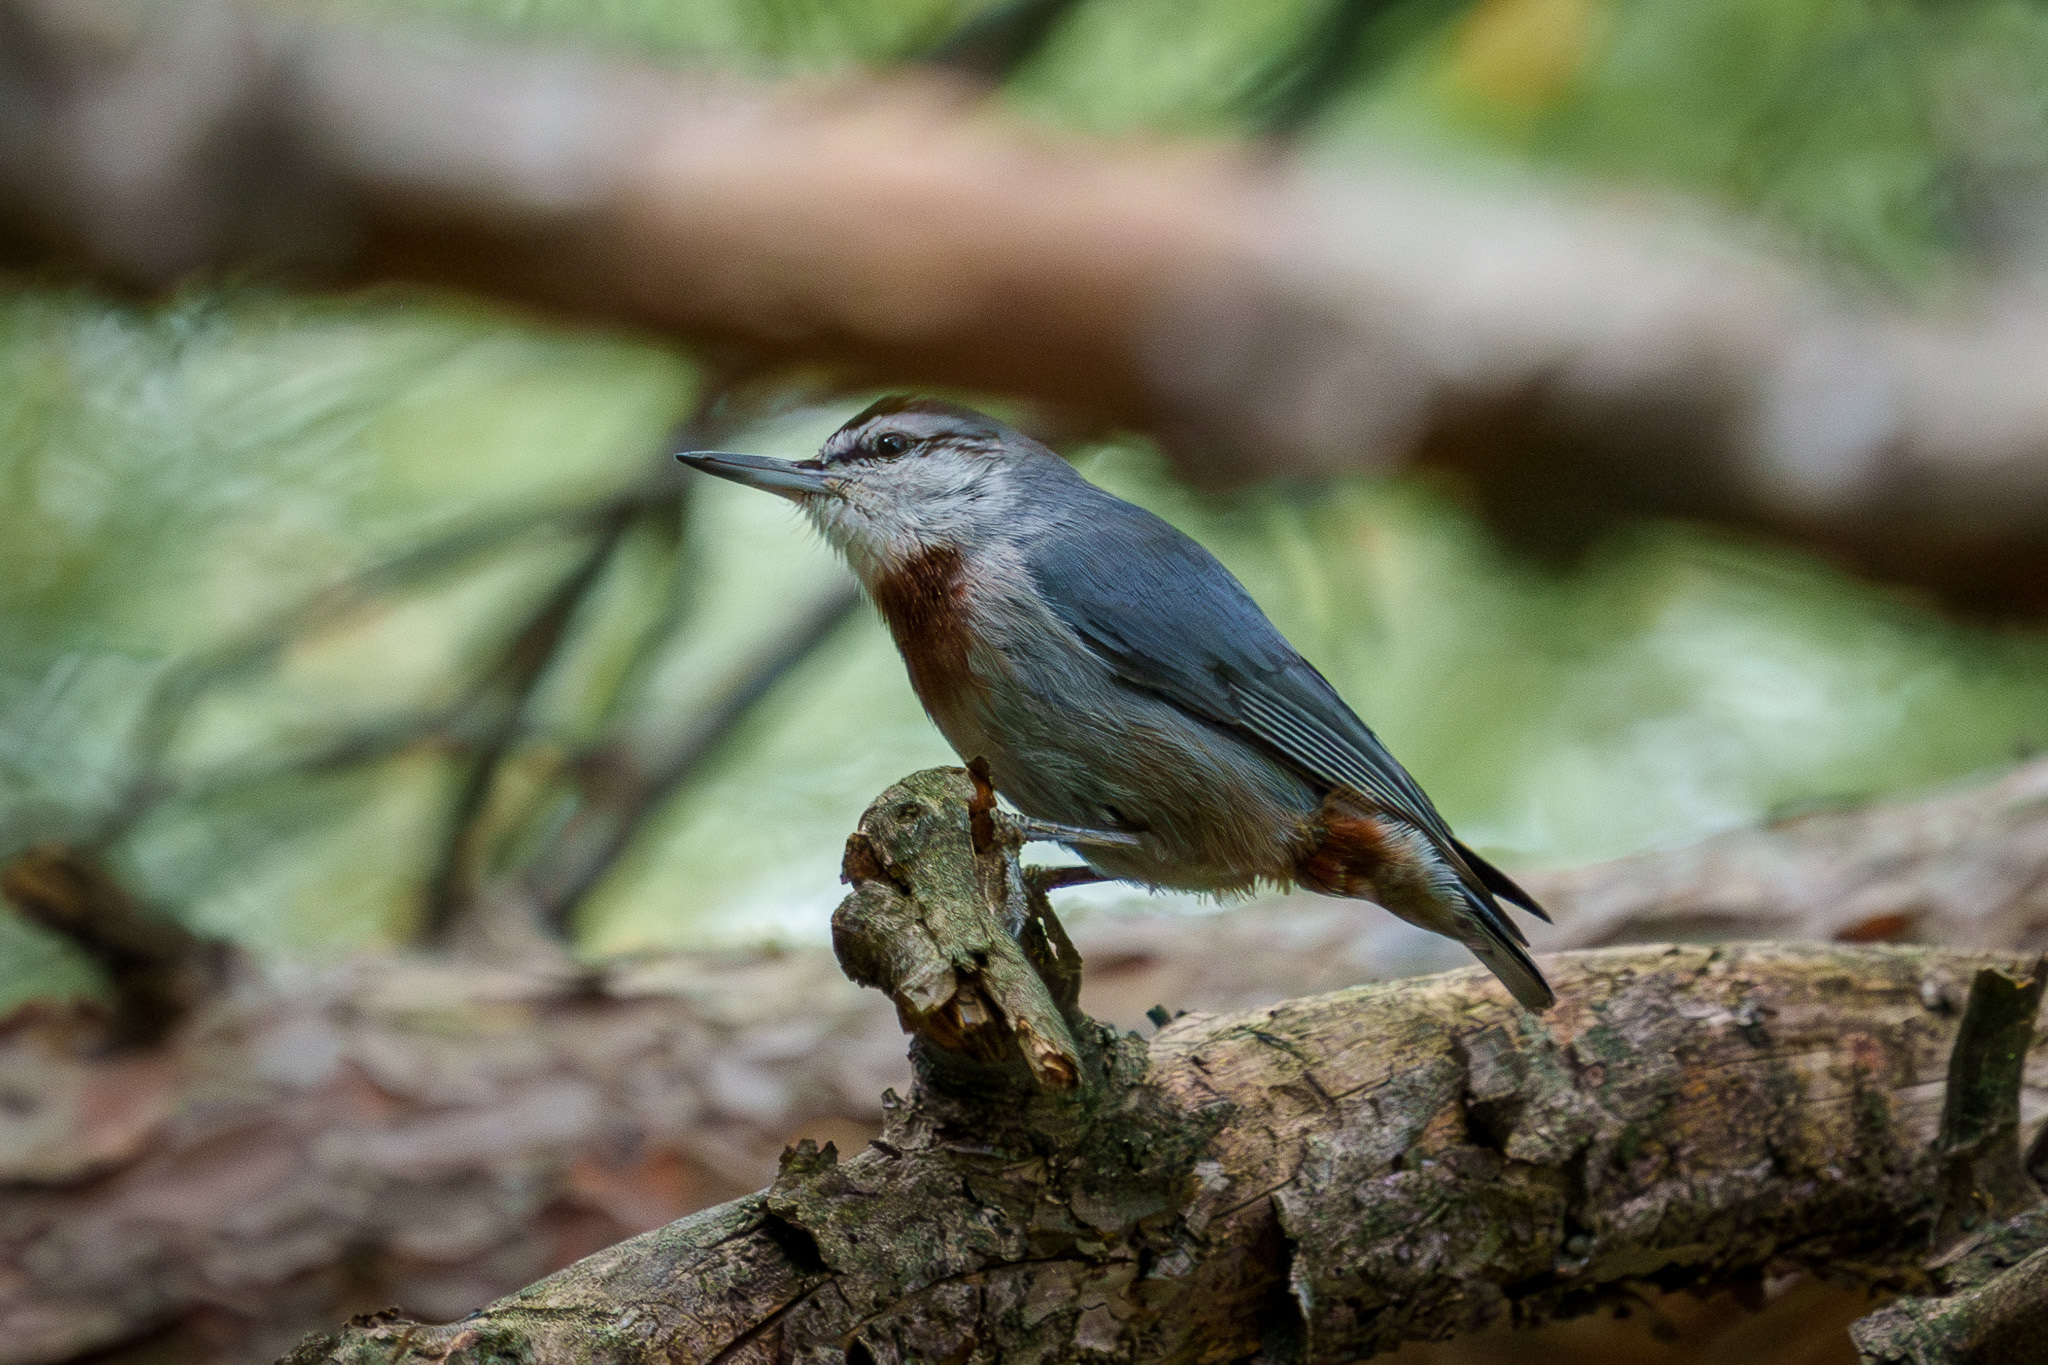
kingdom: Animalia
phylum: Chordata
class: Aves
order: Passeriformes
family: Sittidae
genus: Sitta
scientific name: Sitta krueperi
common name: Krüper's nuthatch
